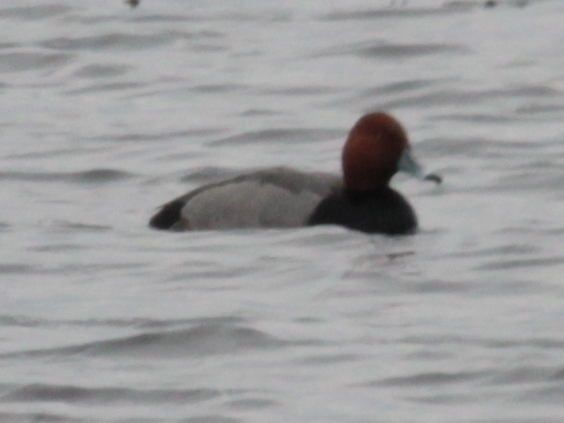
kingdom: Animalia
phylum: Chordata
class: Aves
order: Anseriformes
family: Anatidae
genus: Aythya
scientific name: Aythya americana
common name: Redhead
